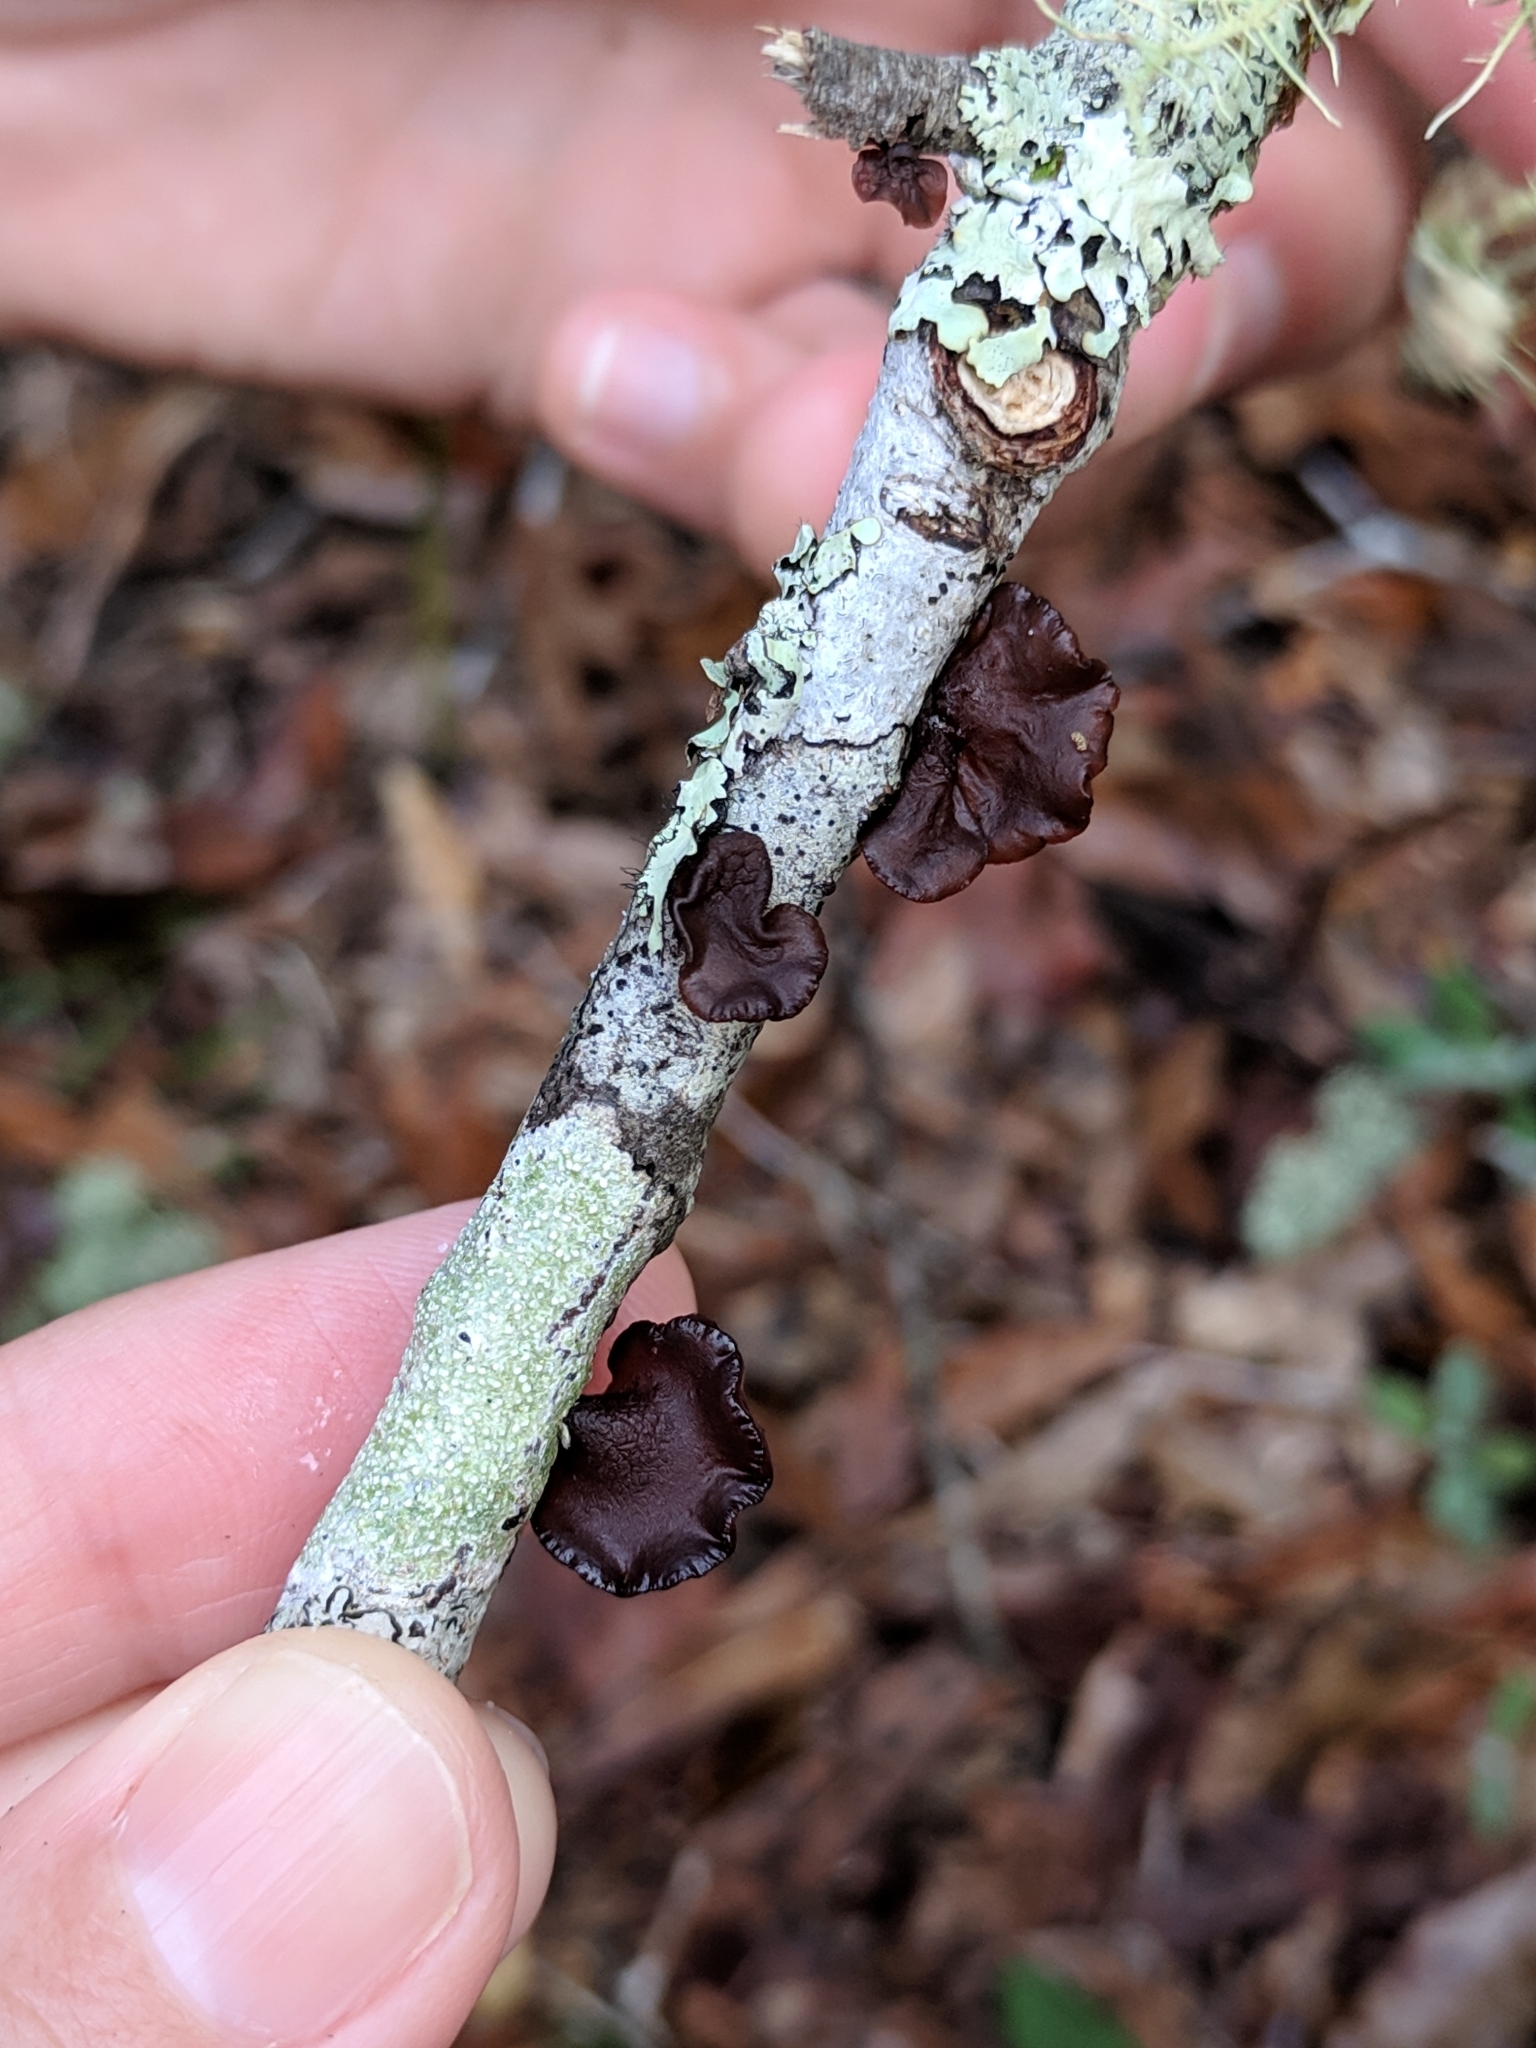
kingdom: Fungi
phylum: Basidiomycota
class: Agaricomycetes
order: Auriculariales
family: Auriculariaceae
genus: Exidia
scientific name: Exidia
